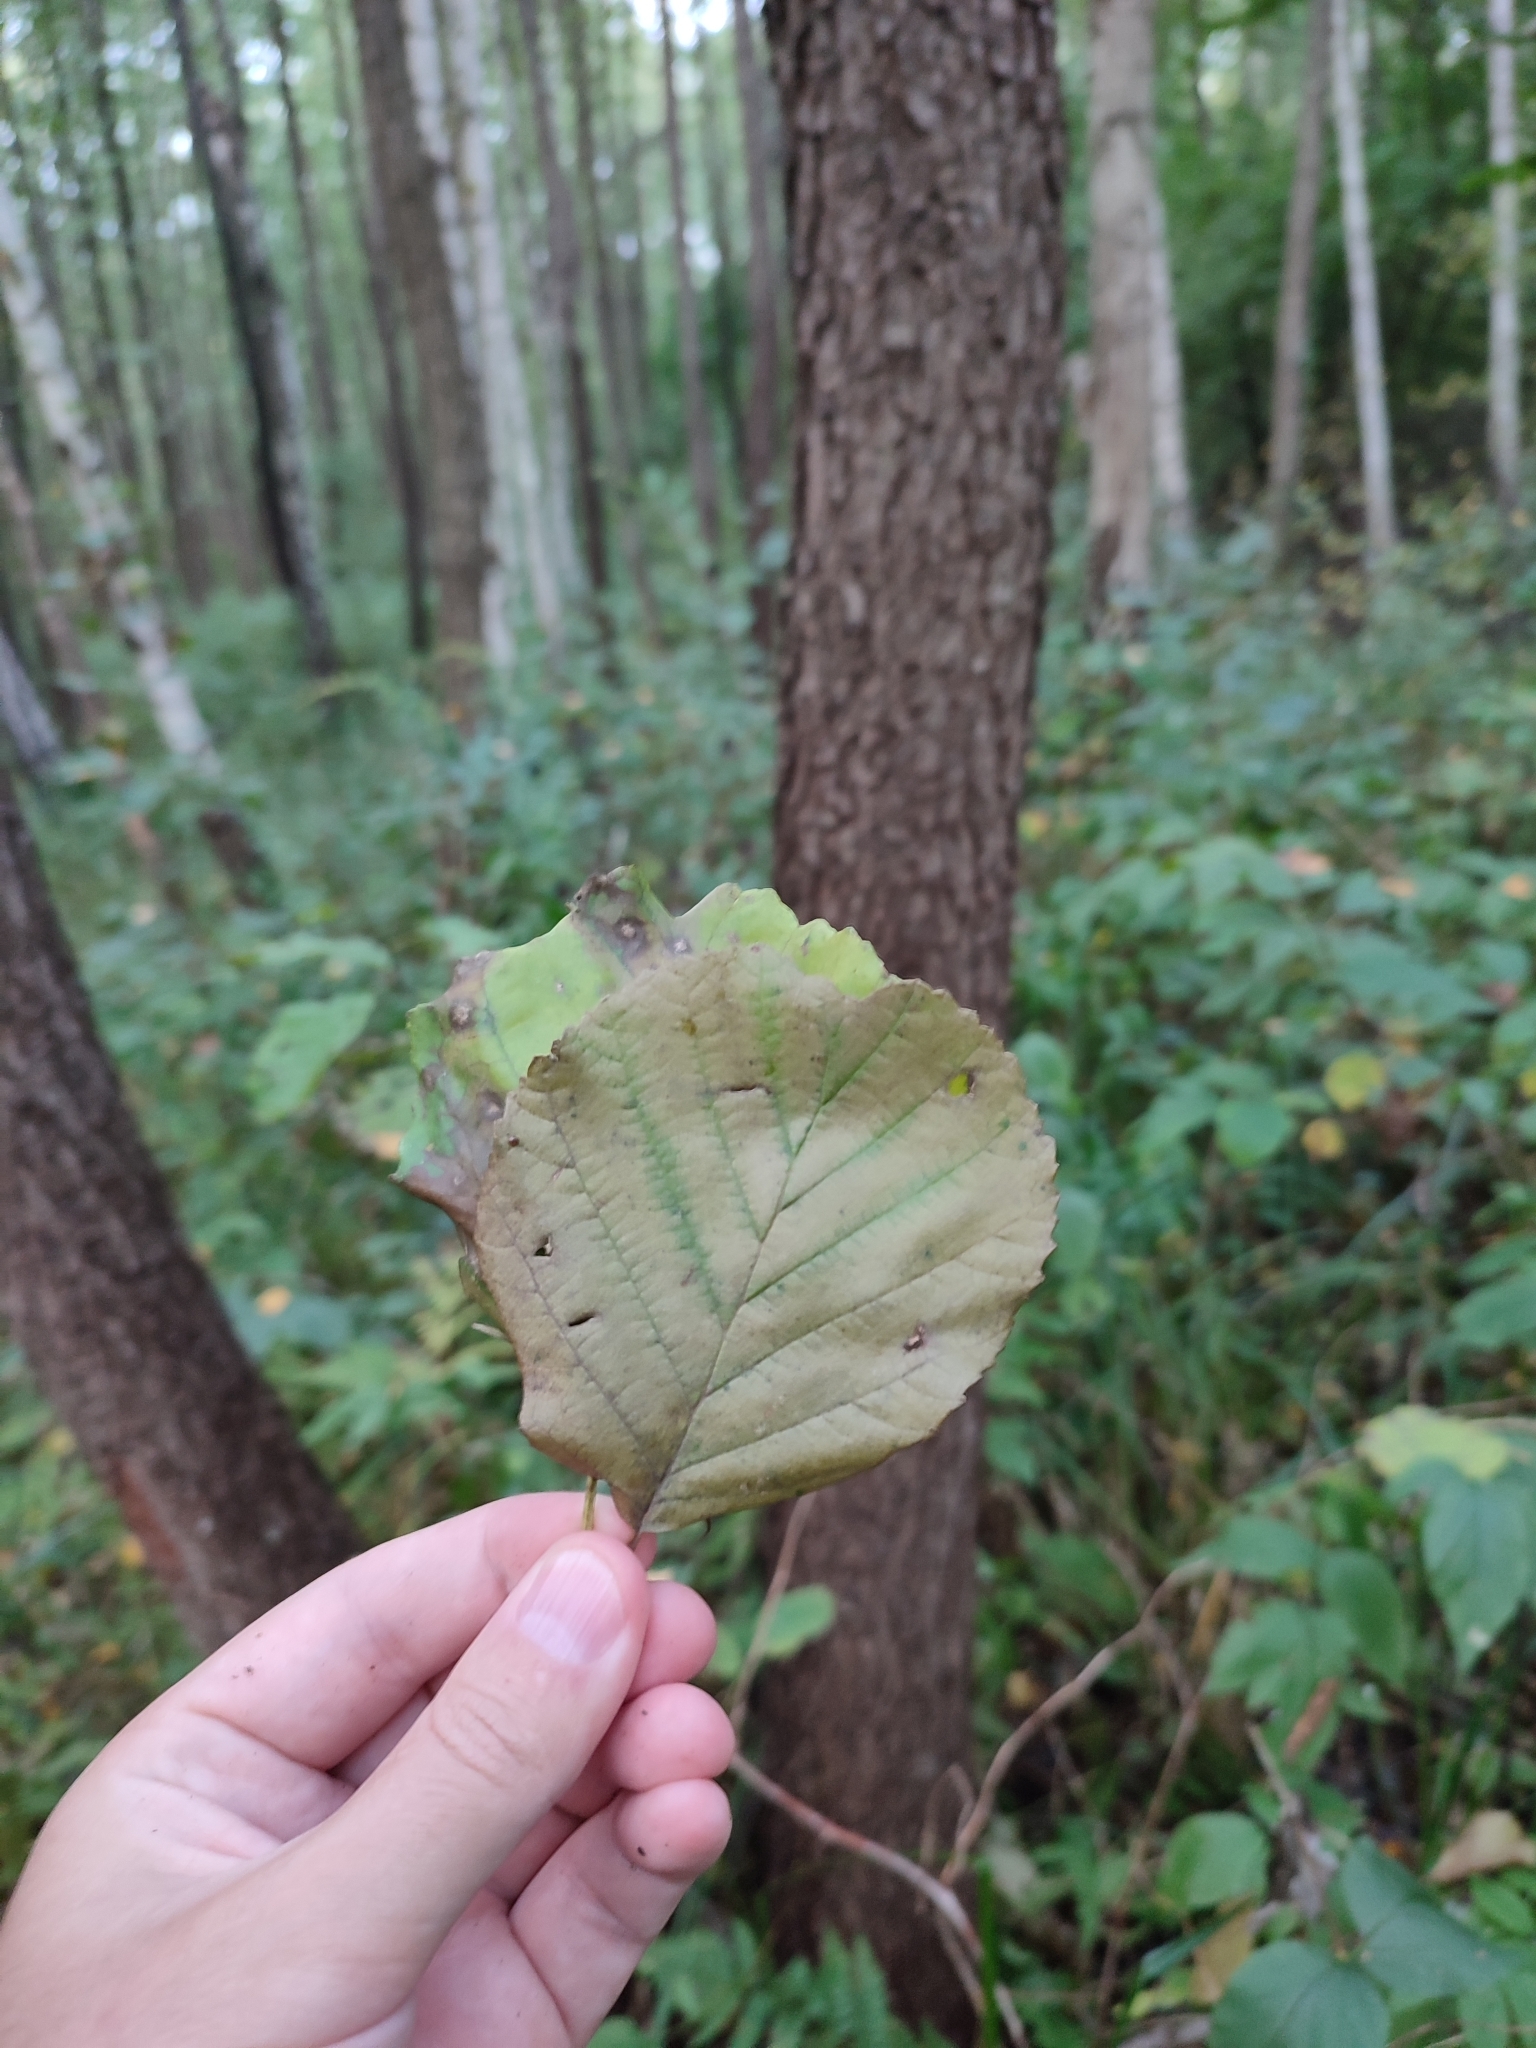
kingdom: Plantae
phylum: Tracheophyta
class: Magnoliopsida
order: Fagales
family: Betulaceae
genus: Alnus
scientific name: Alnus glutinosa
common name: Black alder
